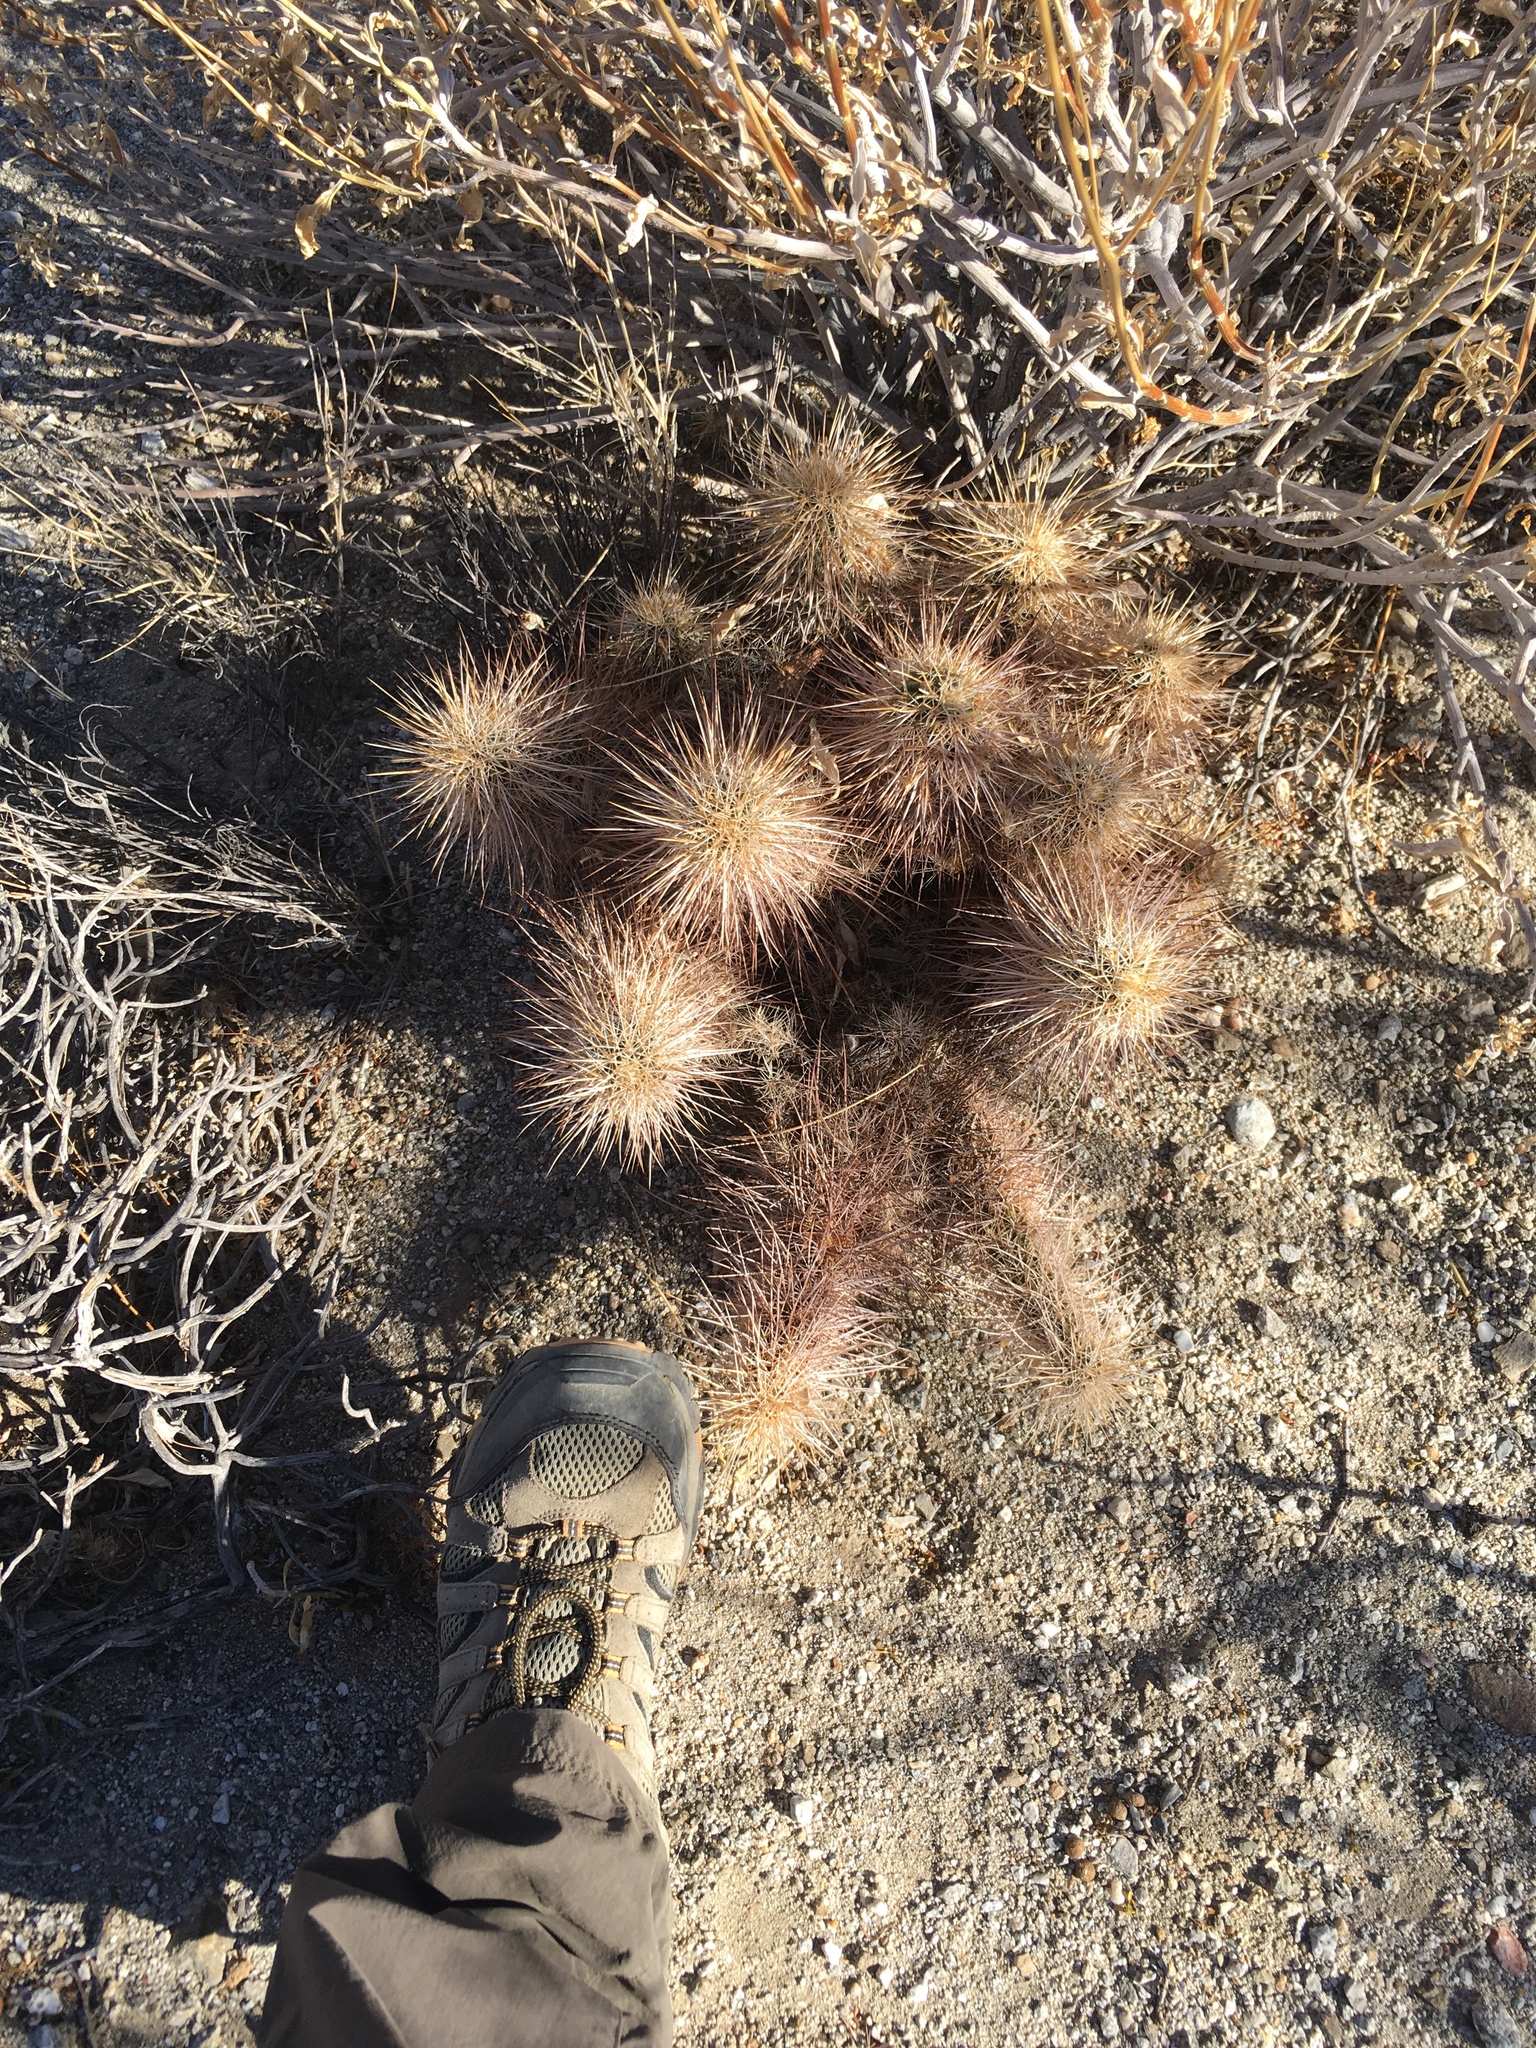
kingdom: Plantae
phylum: Tracheophyta
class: Magnoliopsida
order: Caryophyllales
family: Cactaceae
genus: Echinocereus
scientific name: Echinocereus engelmannii
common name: Engelmann's hedgehog cactus
